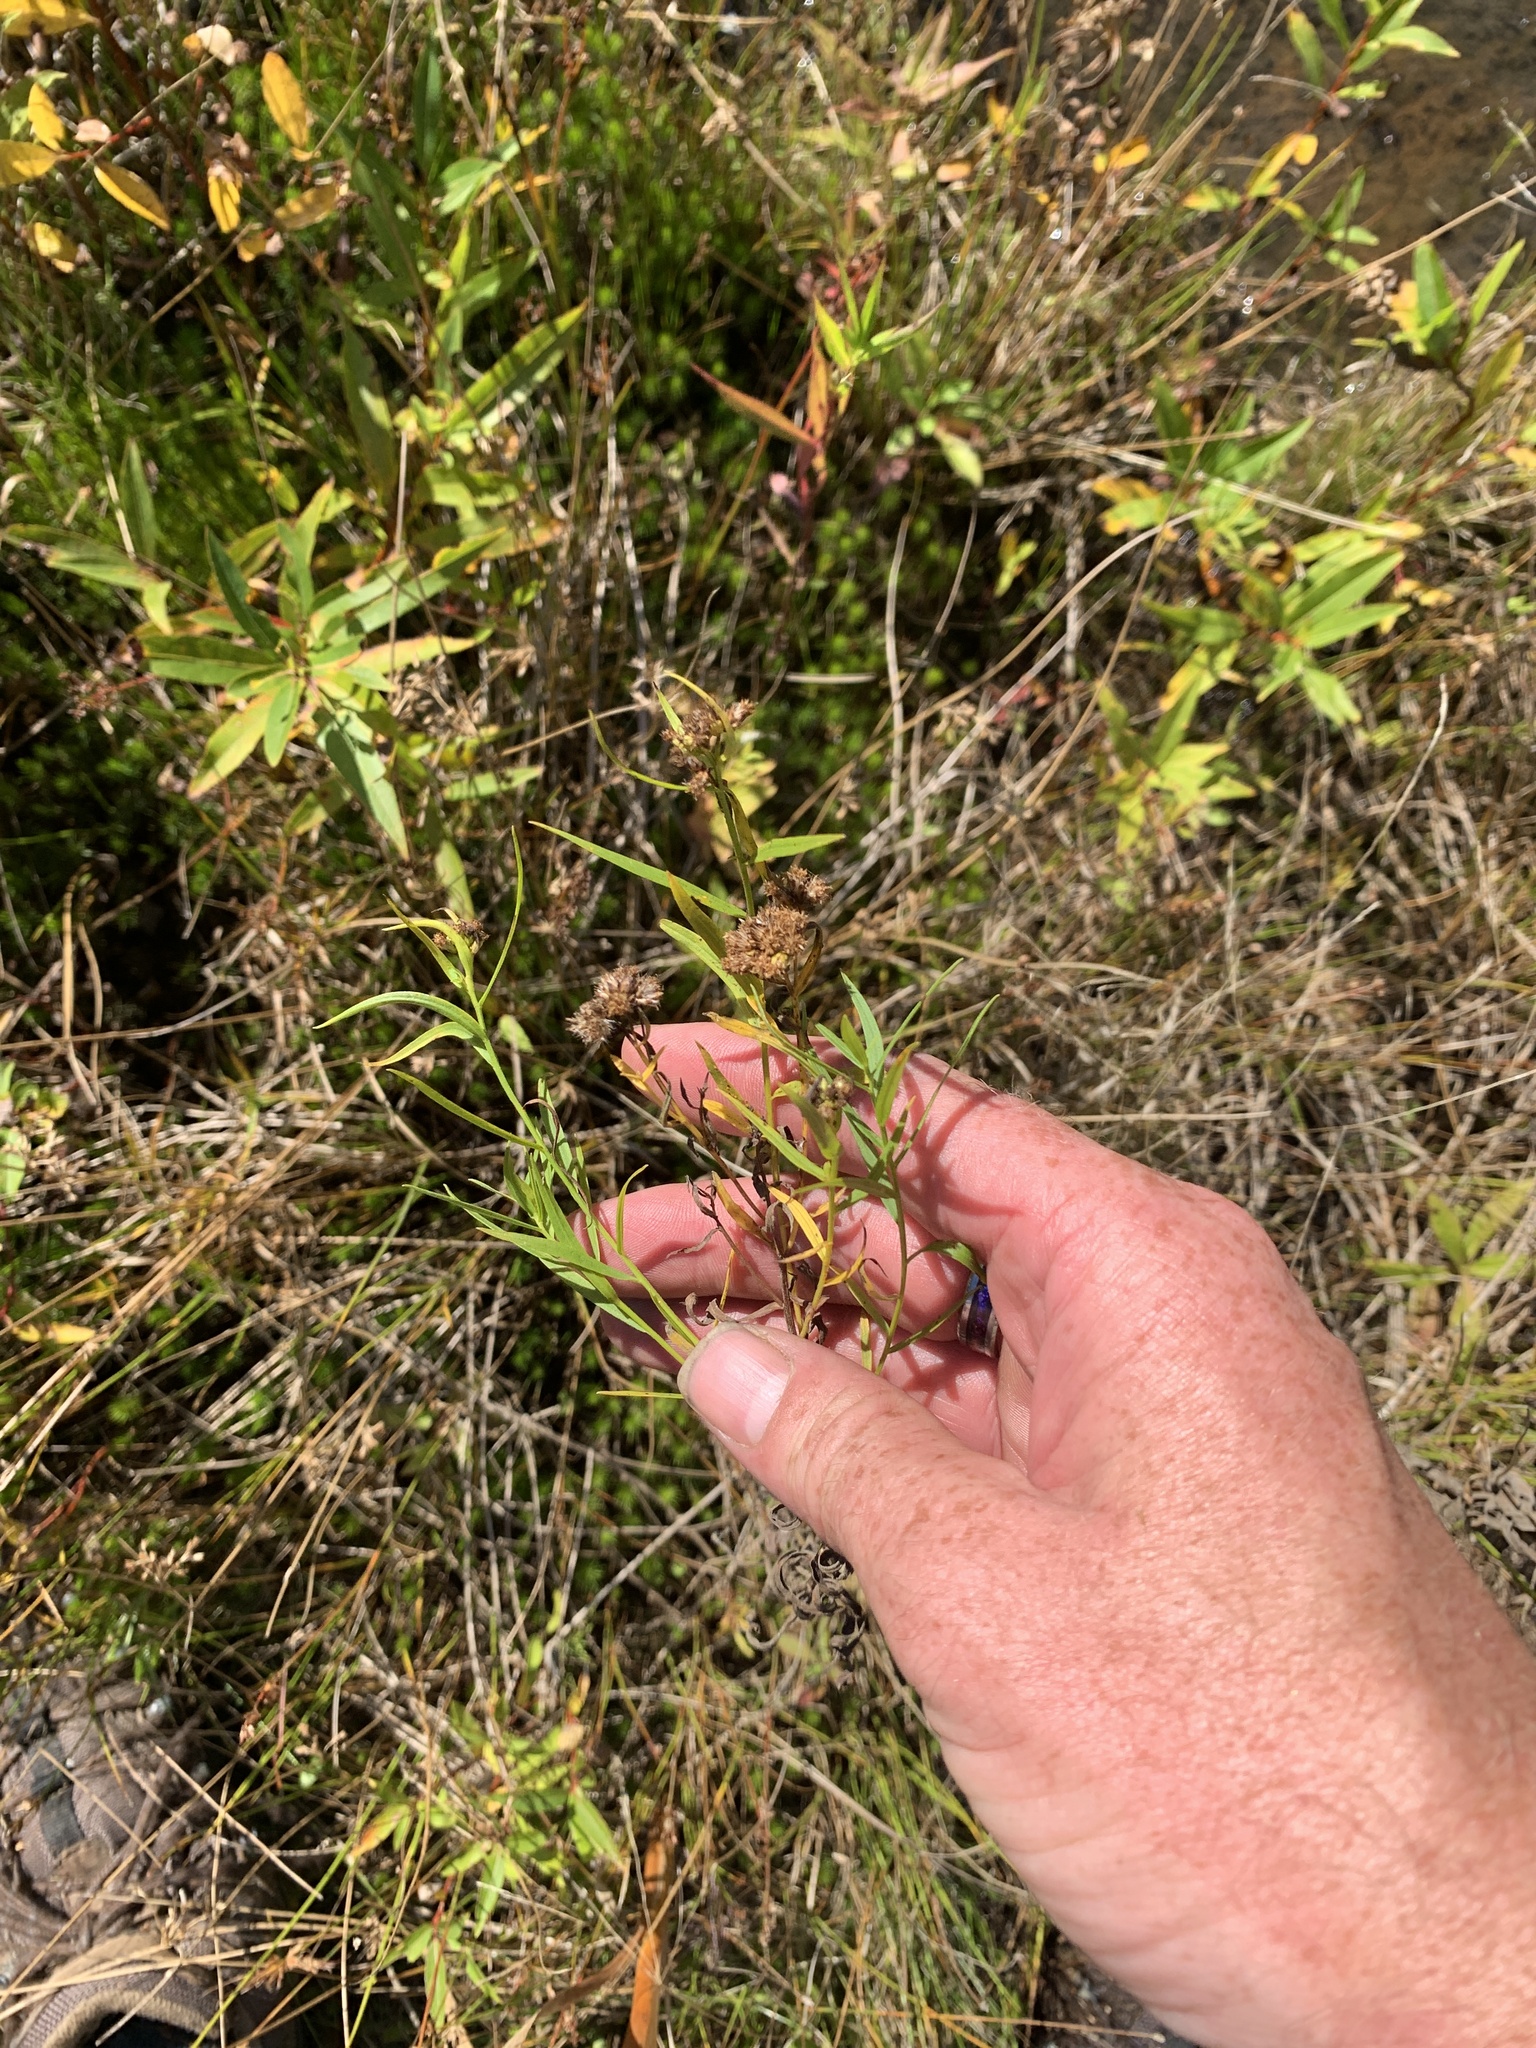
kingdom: Plantae
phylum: Tracheophyta
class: Magnoliopsida
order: Asterales
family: Asteraceae
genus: Euthamia
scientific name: Euthamia graminifolia
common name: Common goldentop
